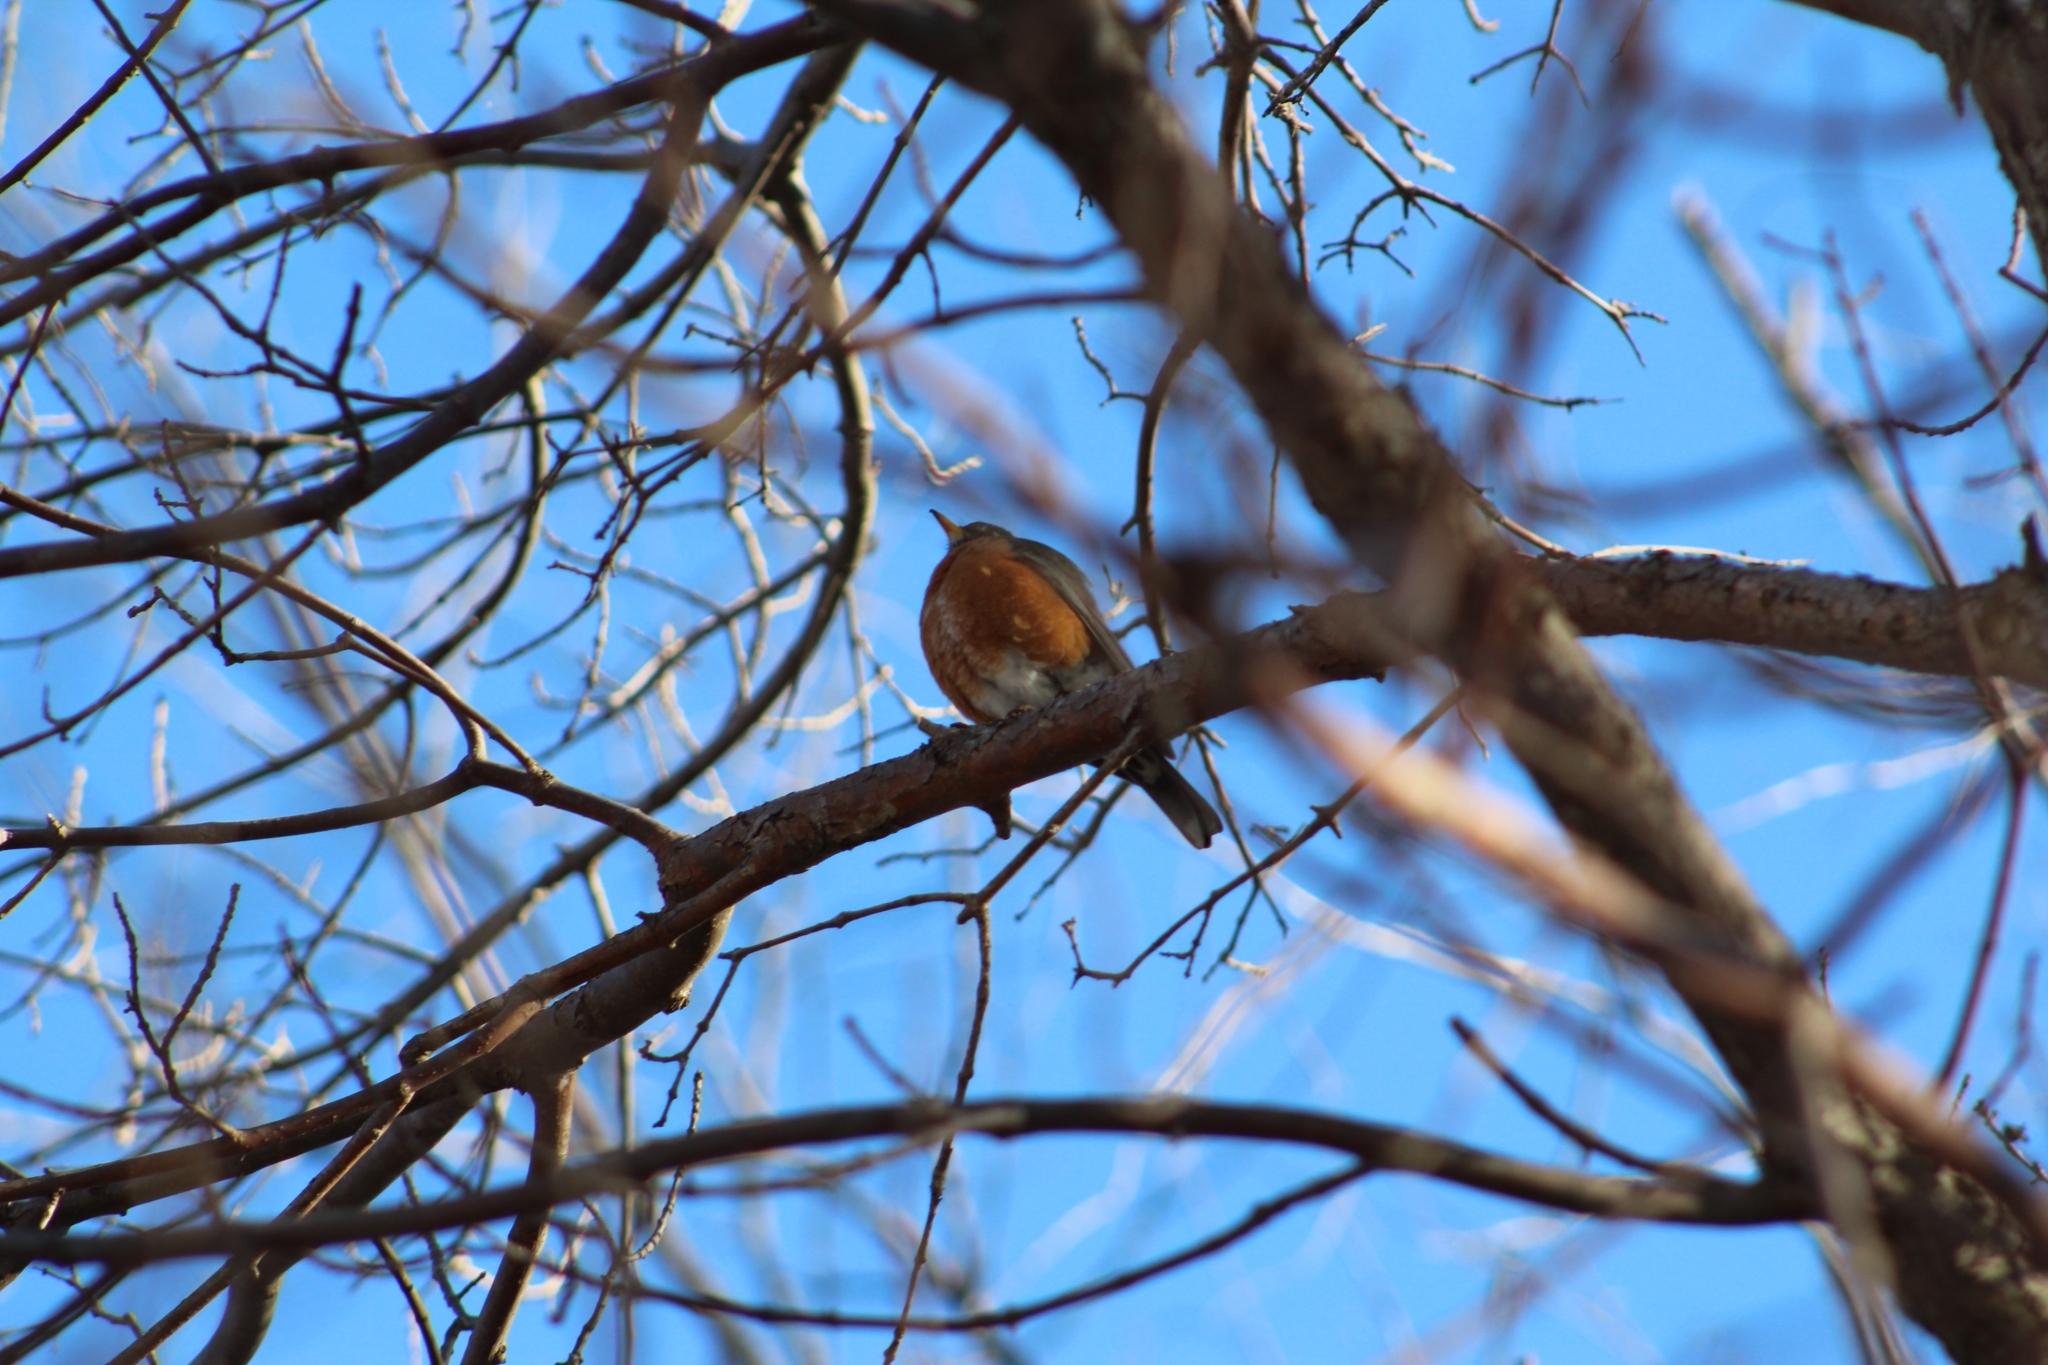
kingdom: Animalia
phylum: Chordata
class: Aves
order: Passeriformes
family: Turdidae
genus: Turdus
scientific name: Turdus migratorius
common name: American robin
